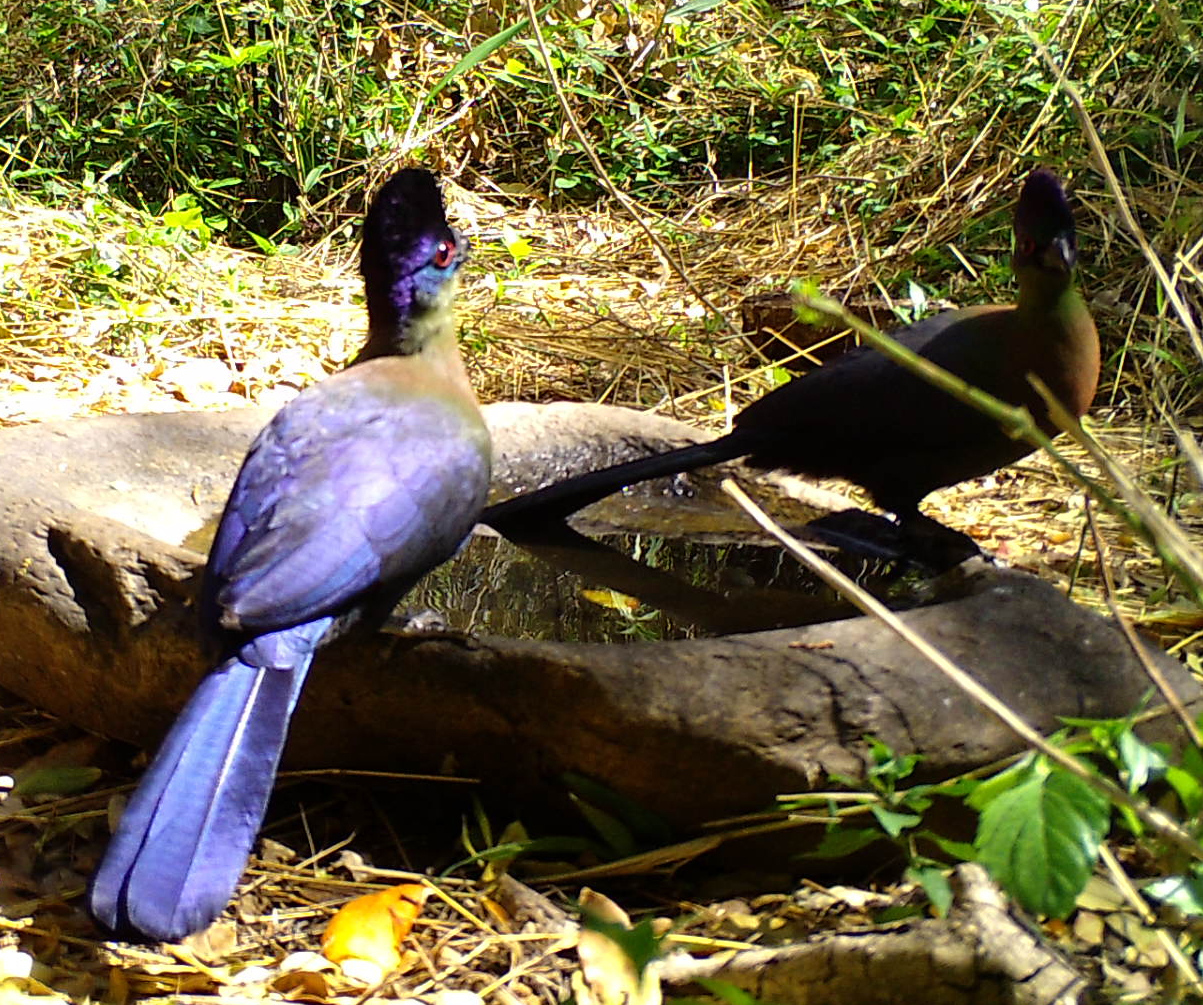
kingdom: Animalia
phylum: Chordata
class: Aves
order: Musophagiformes
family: Musophagidae
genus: Tauraco
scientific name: Tauraco porphyreolophus
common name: Purple-crested turaco
